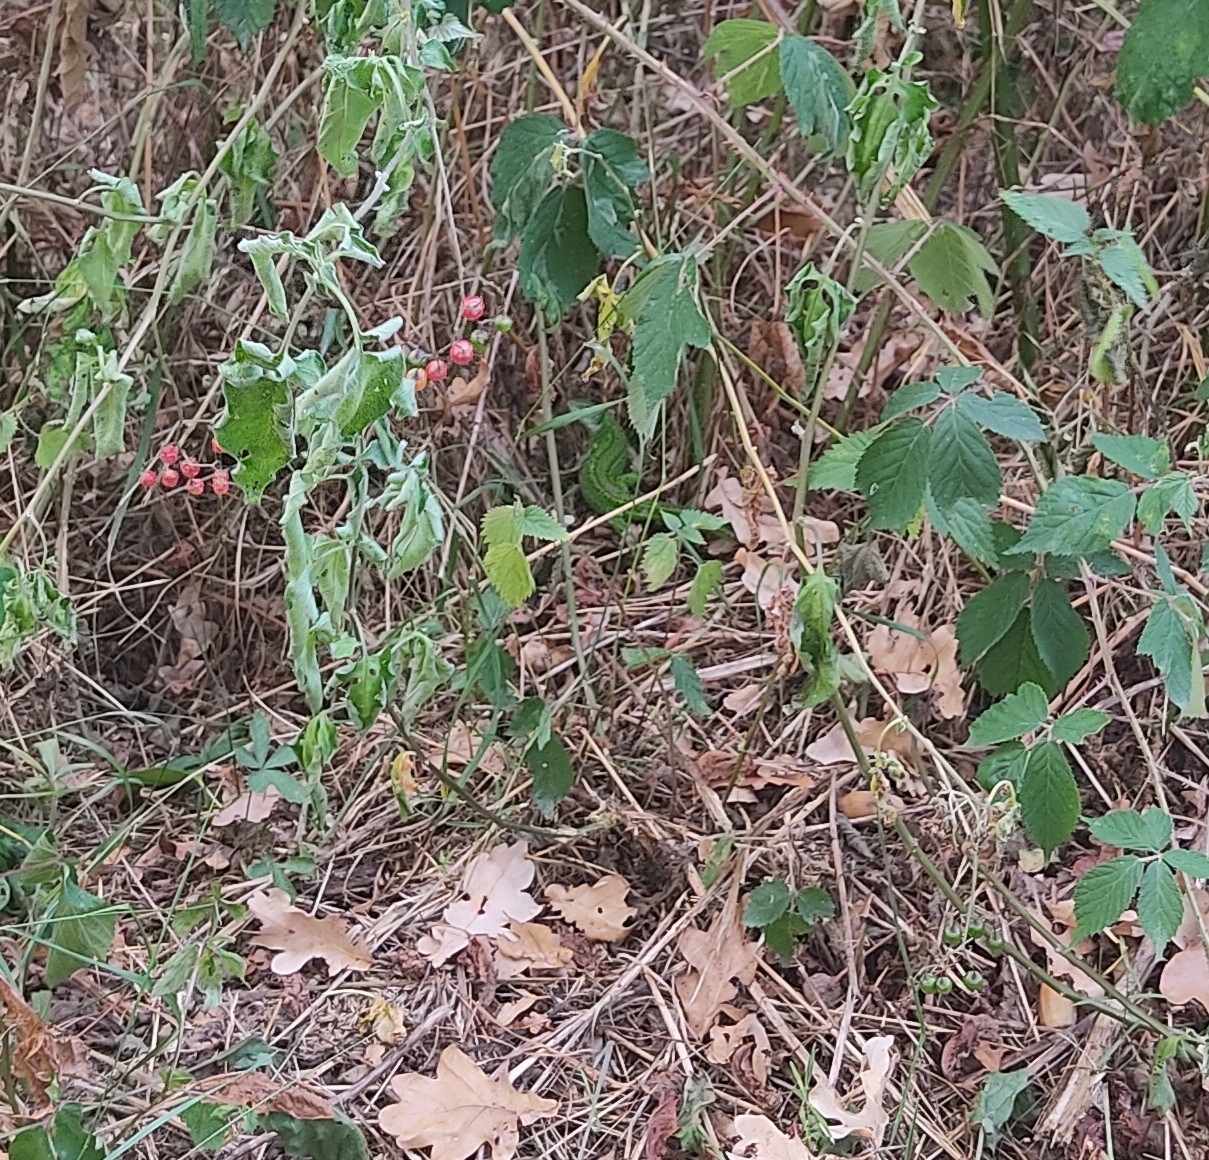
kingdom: Animalia
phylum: Chordata
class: Squamata
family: Lacertidae
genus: Lacerta
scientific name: Lacerta bilineata
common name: Western green lizard
